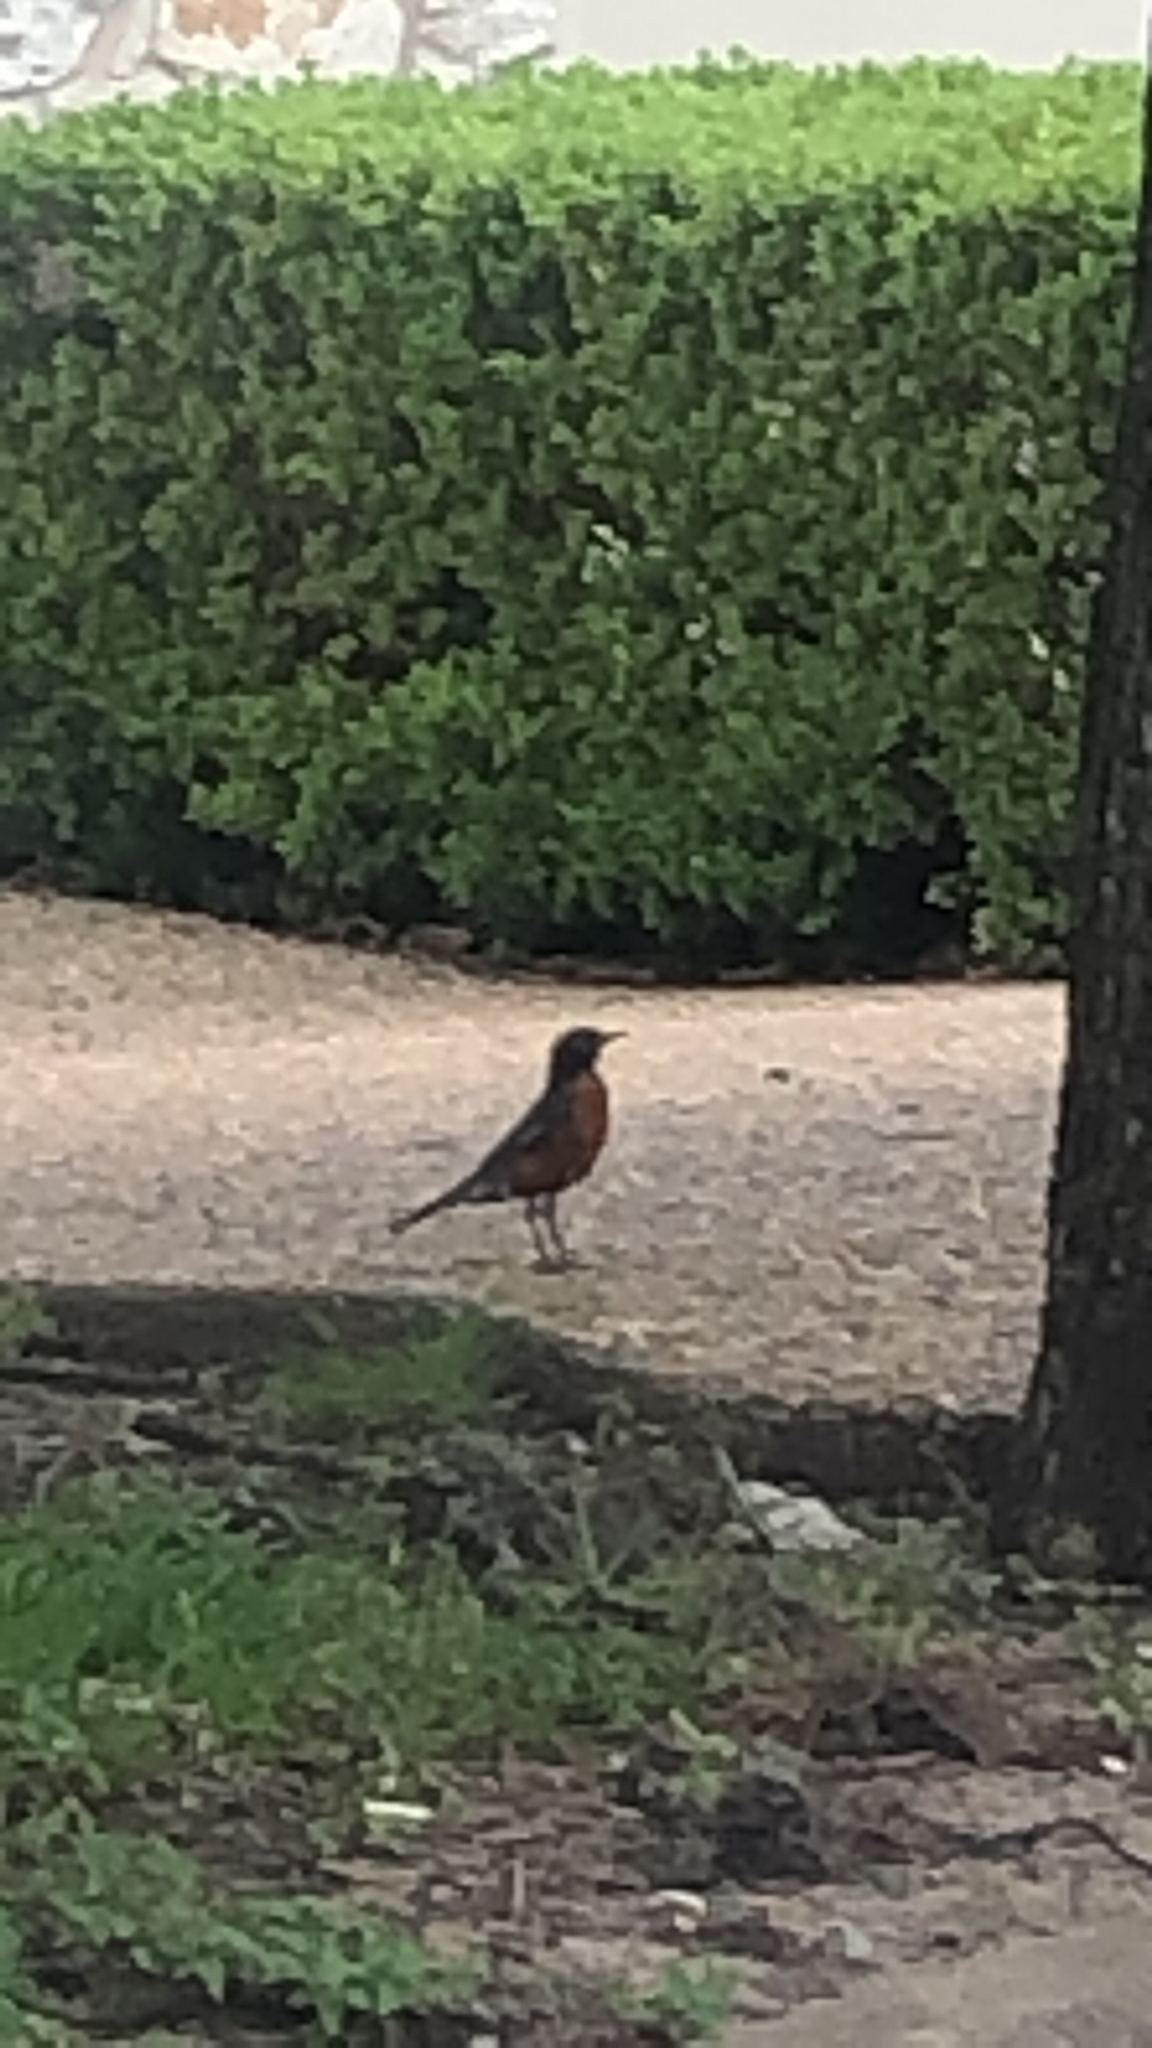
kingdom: Animalia
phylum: Chordata
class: Aves
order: Passeriformes
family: Turdidae
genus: Turdus
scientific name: Turdus migratorius
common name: American robin
